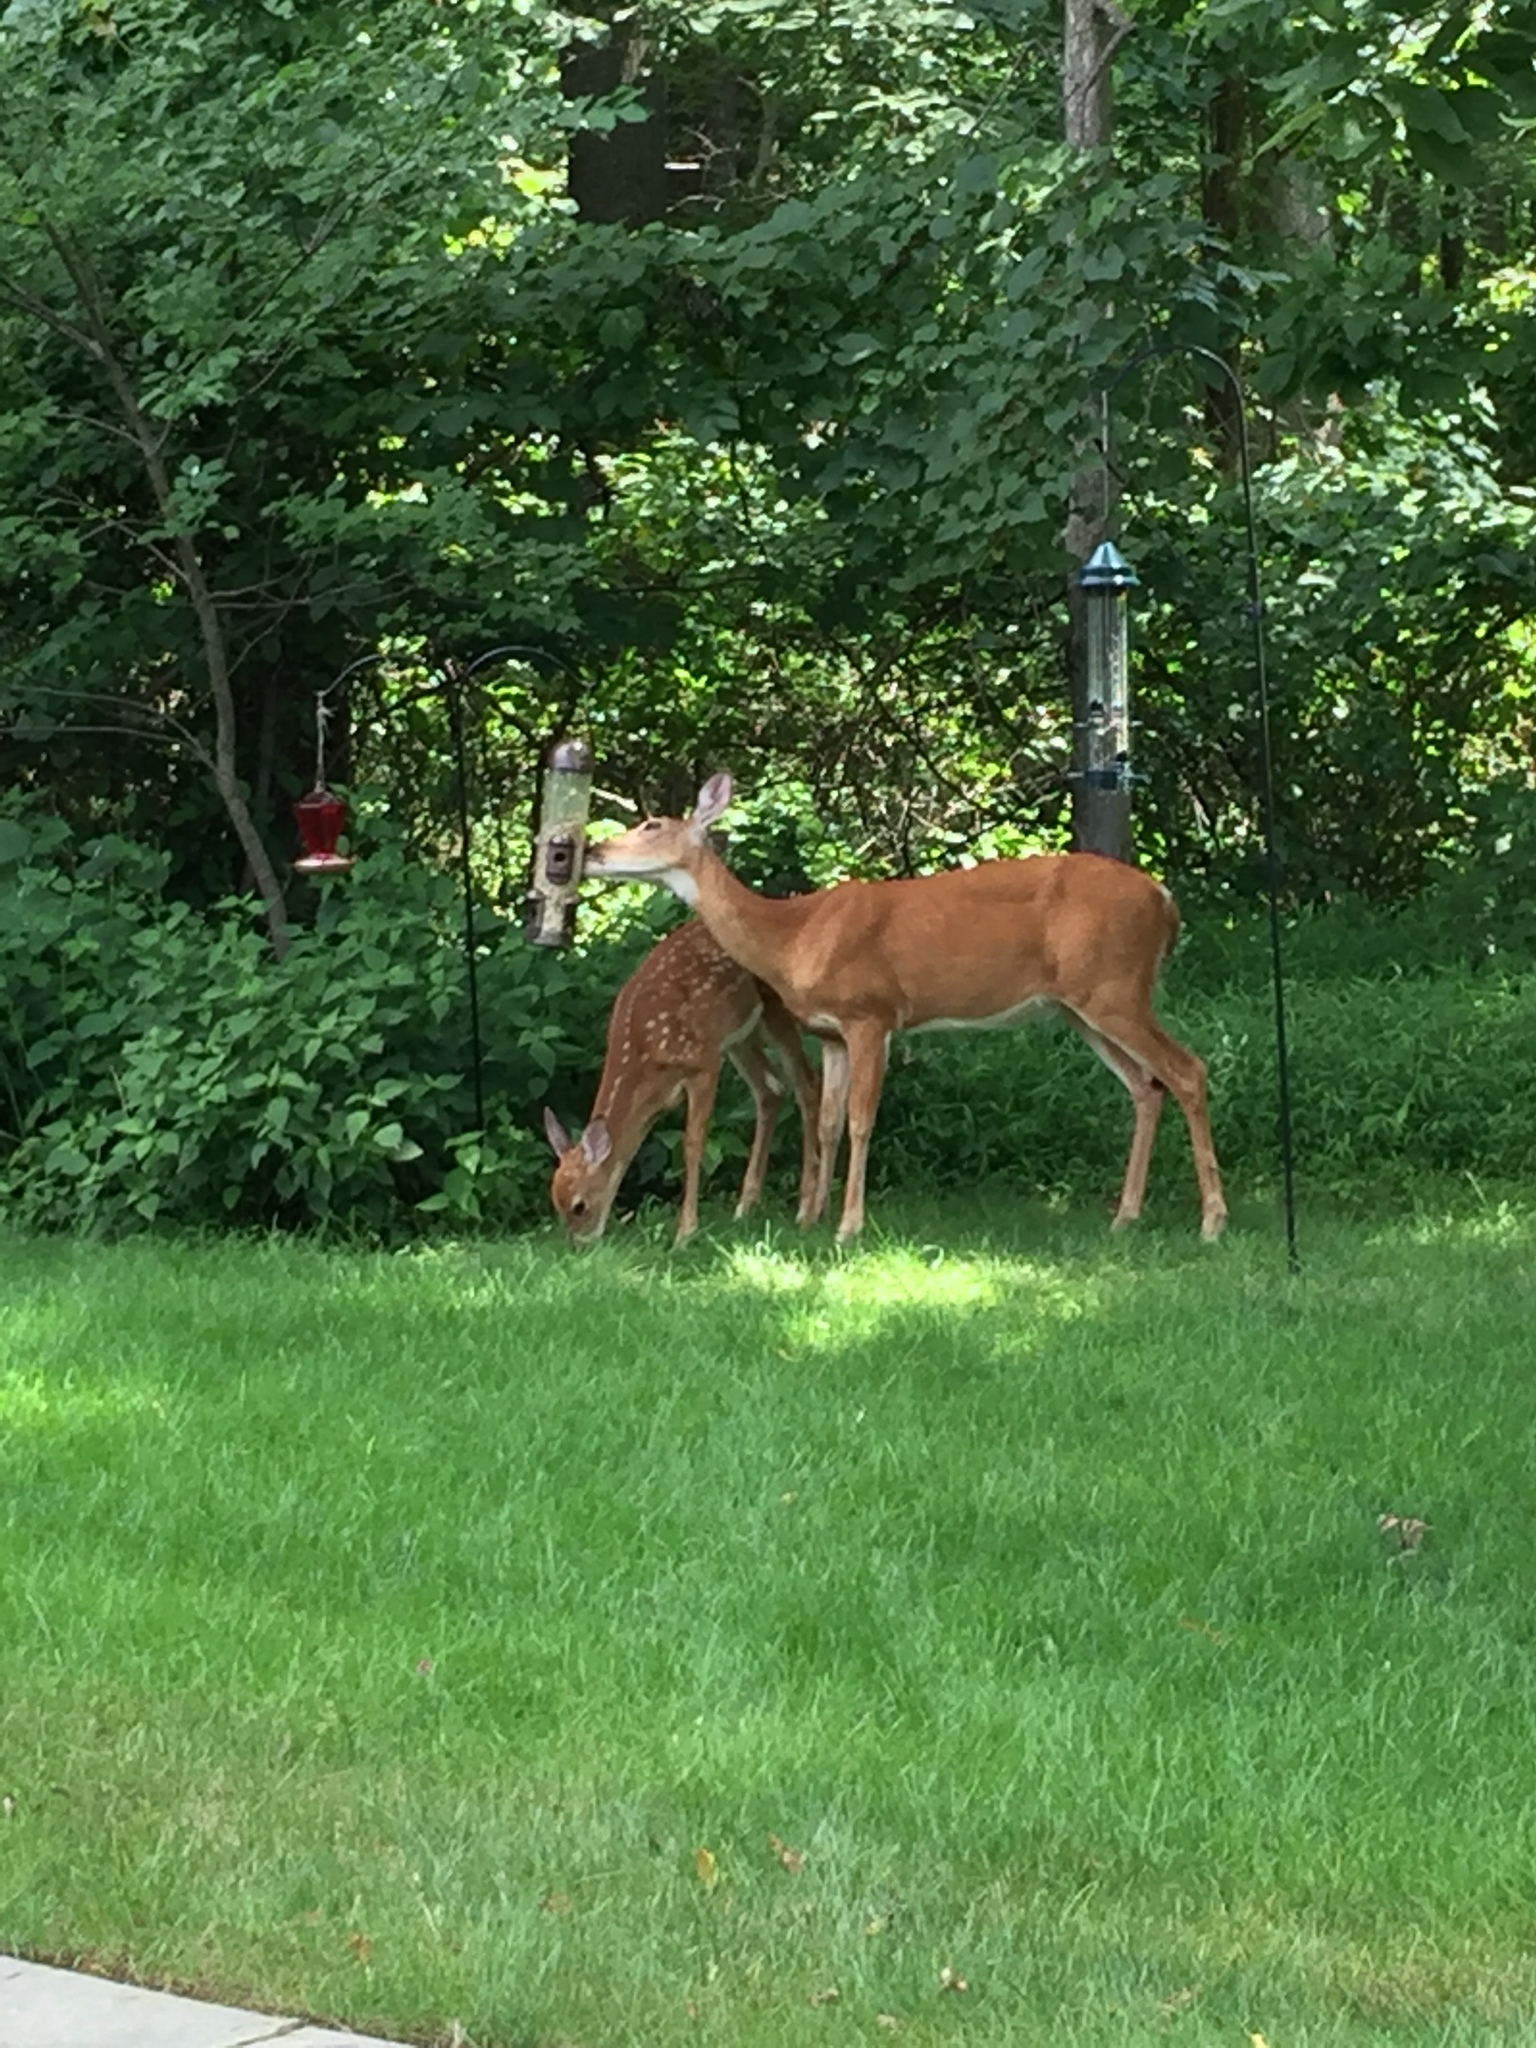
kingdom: Animalia
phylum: Chordata
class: Mammalia
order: Artiodactyla
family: Cervidae
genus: Odocoileus
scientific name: Odocoileus virginianus
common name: White-tailed deer
